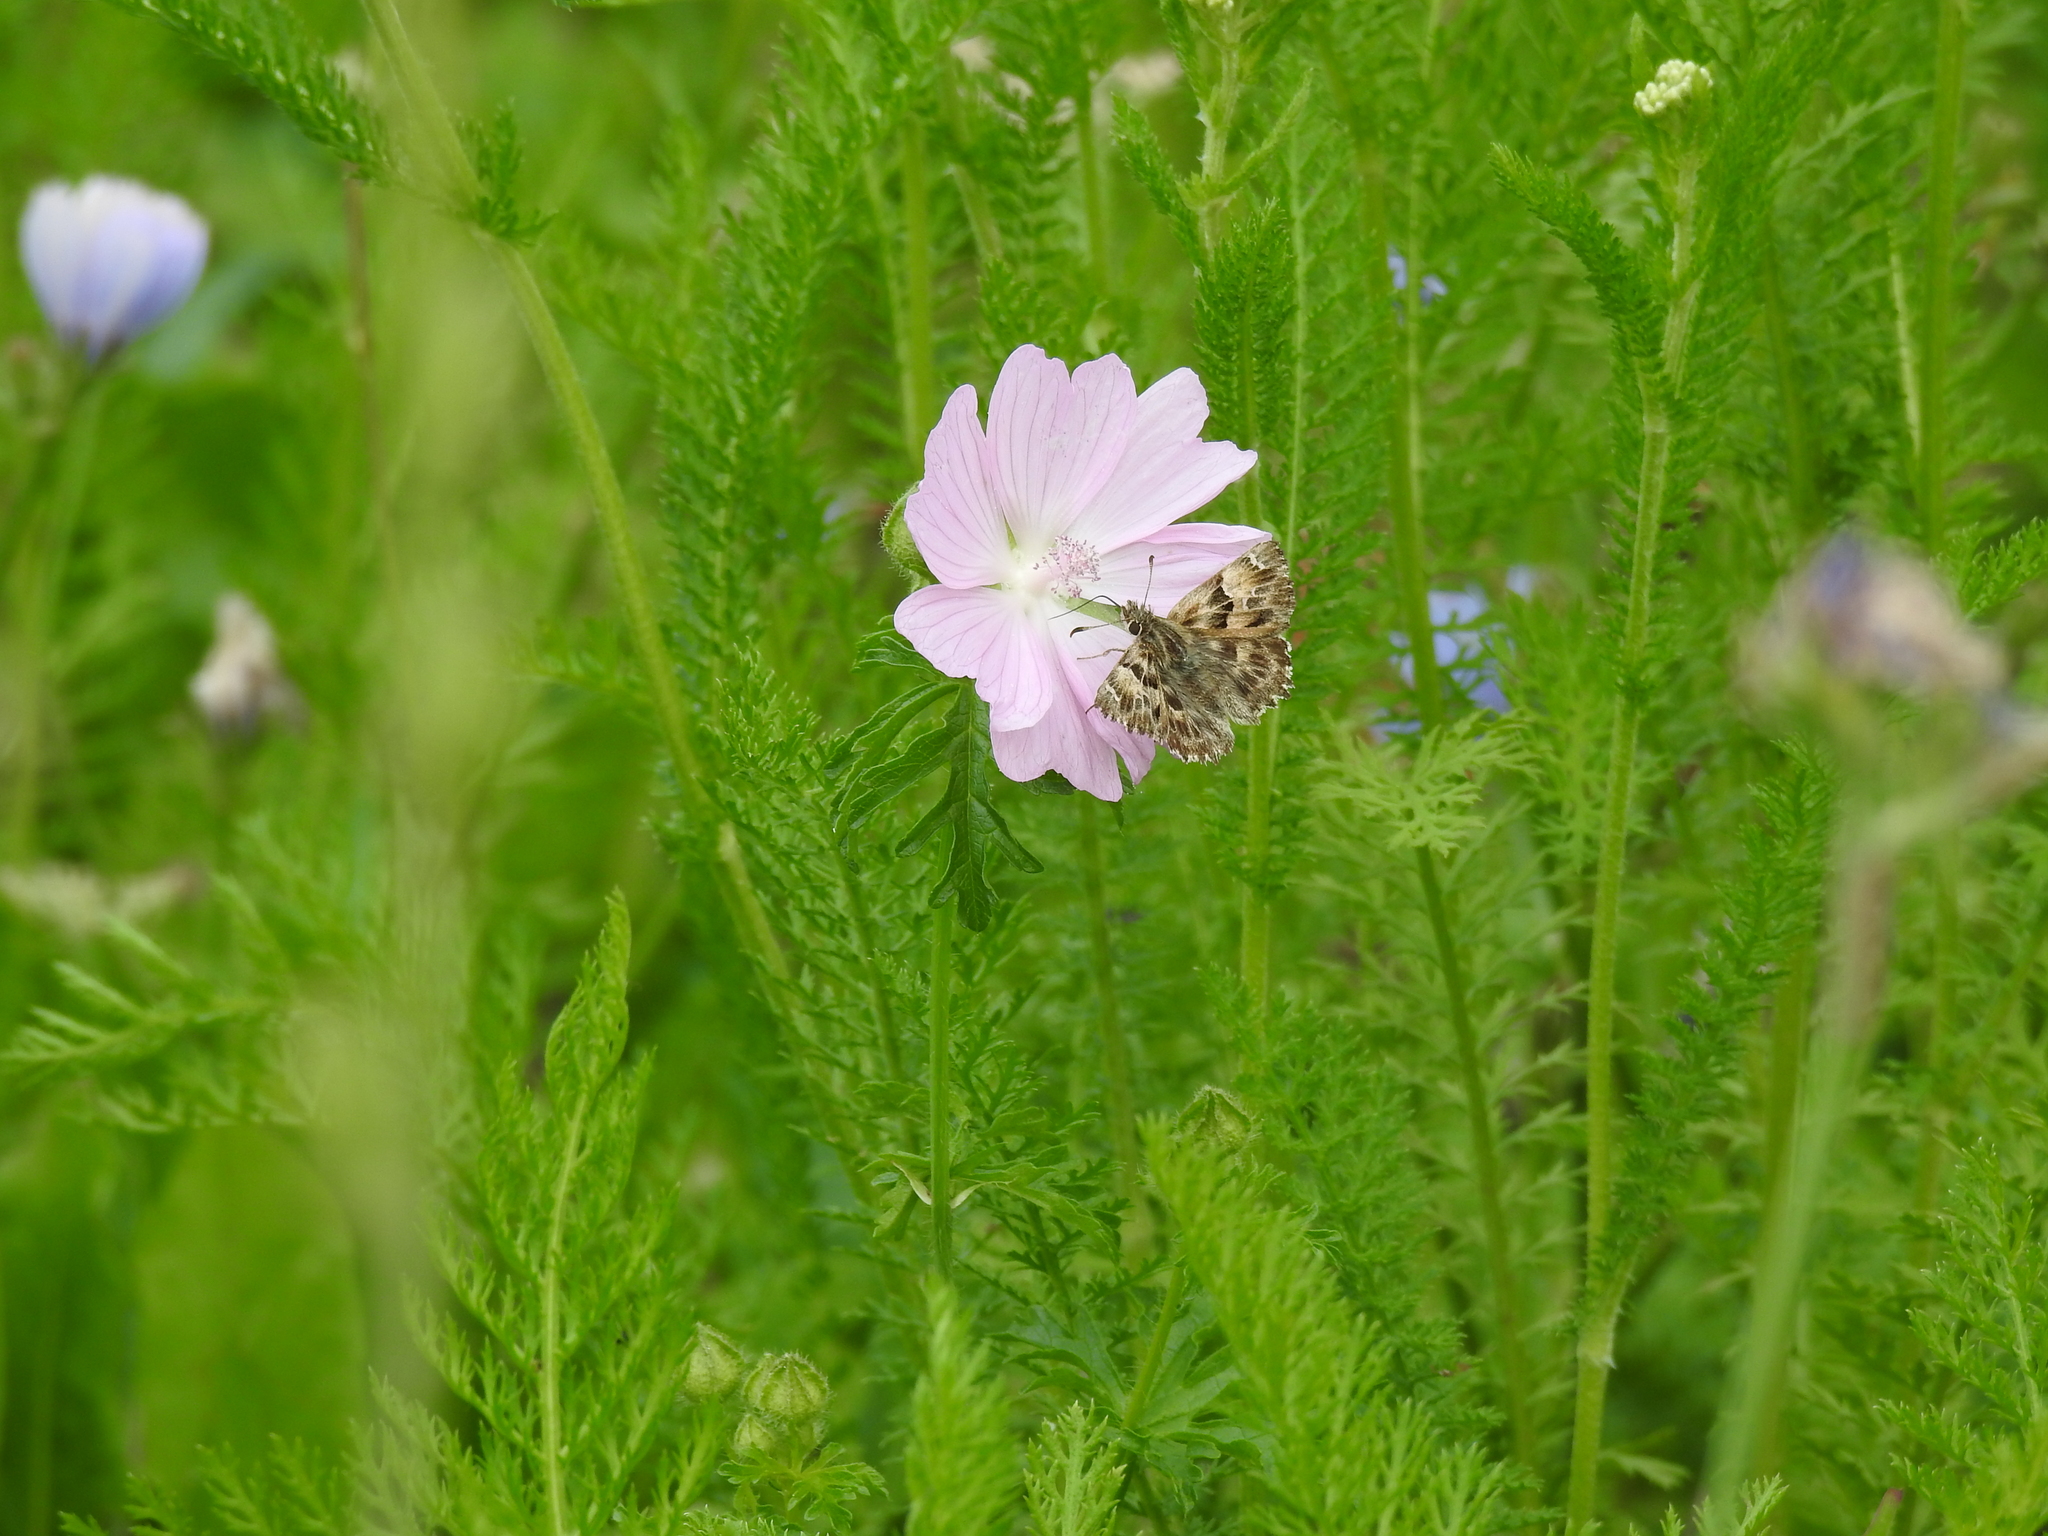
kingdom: Animalia
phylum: Arthropoda
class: Insecta
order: Lepidoptera
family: Hesperiidae
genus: Carcharodus
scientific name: Carcharodus alceae
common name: Mallow skipper
